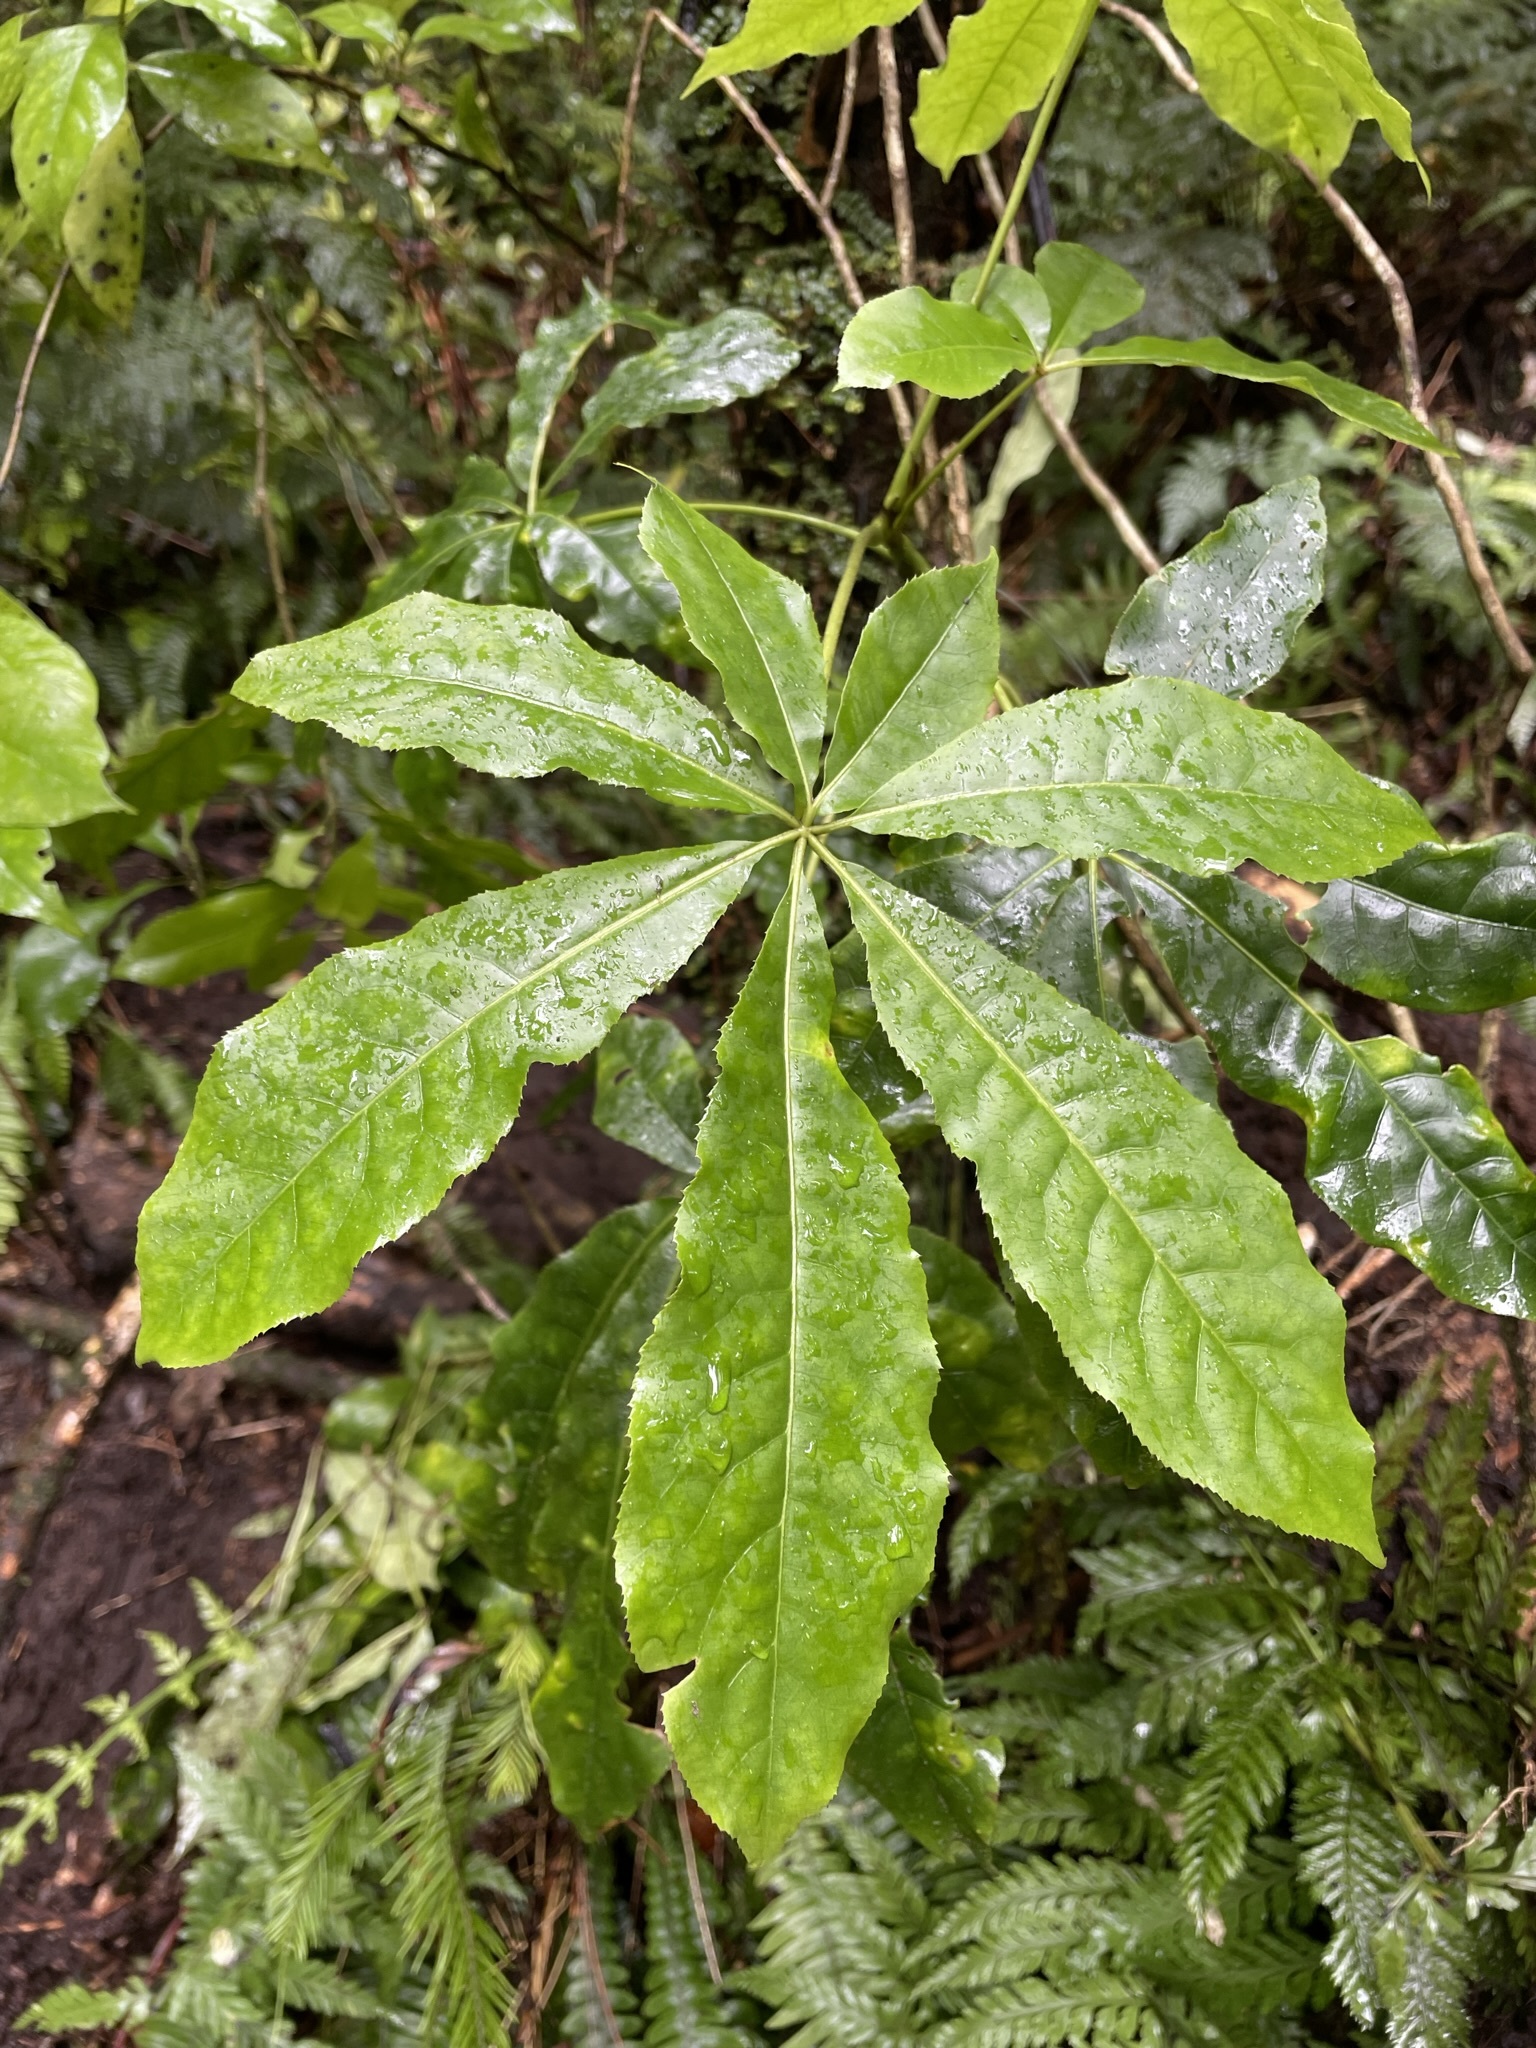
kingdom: Plantae
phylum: Tracheophyta
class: Magnoliopsida
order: Apiales
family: Araliaceae
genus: Schefflera
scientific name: Schefflera digitata
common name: Pate
